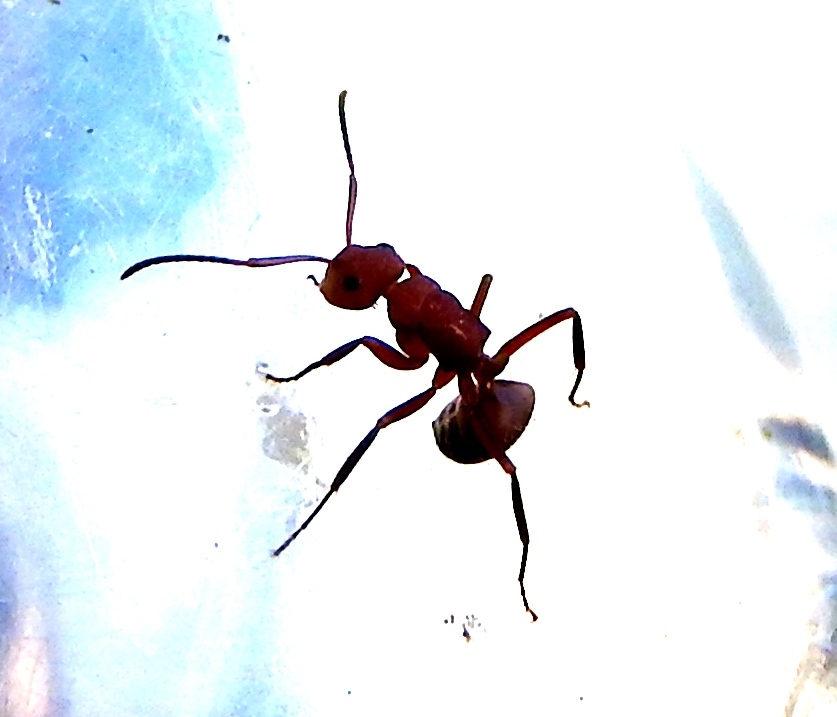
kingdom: Animalia
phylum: Arthropoda
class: Insecta
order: Hymenoptera
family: Formicidae
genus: Camponotus
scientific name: Camponotus rectangularis
